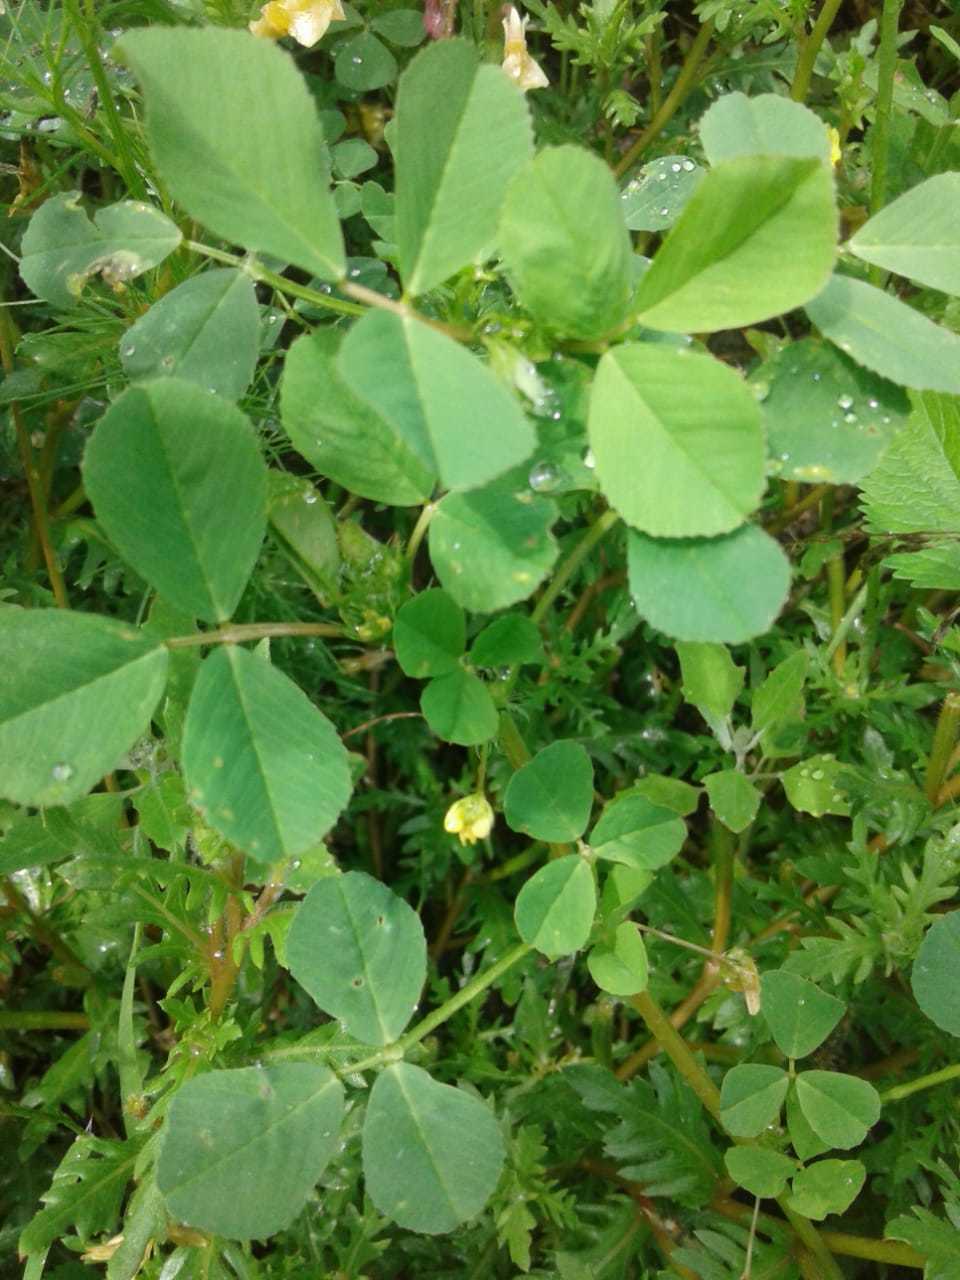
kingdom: Plantae
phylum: Tracheophyta
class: Magnoliopsida
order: Fabales
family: Fabaceae
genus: Medicago
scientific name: Medicago polymorpha
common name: Burclover
